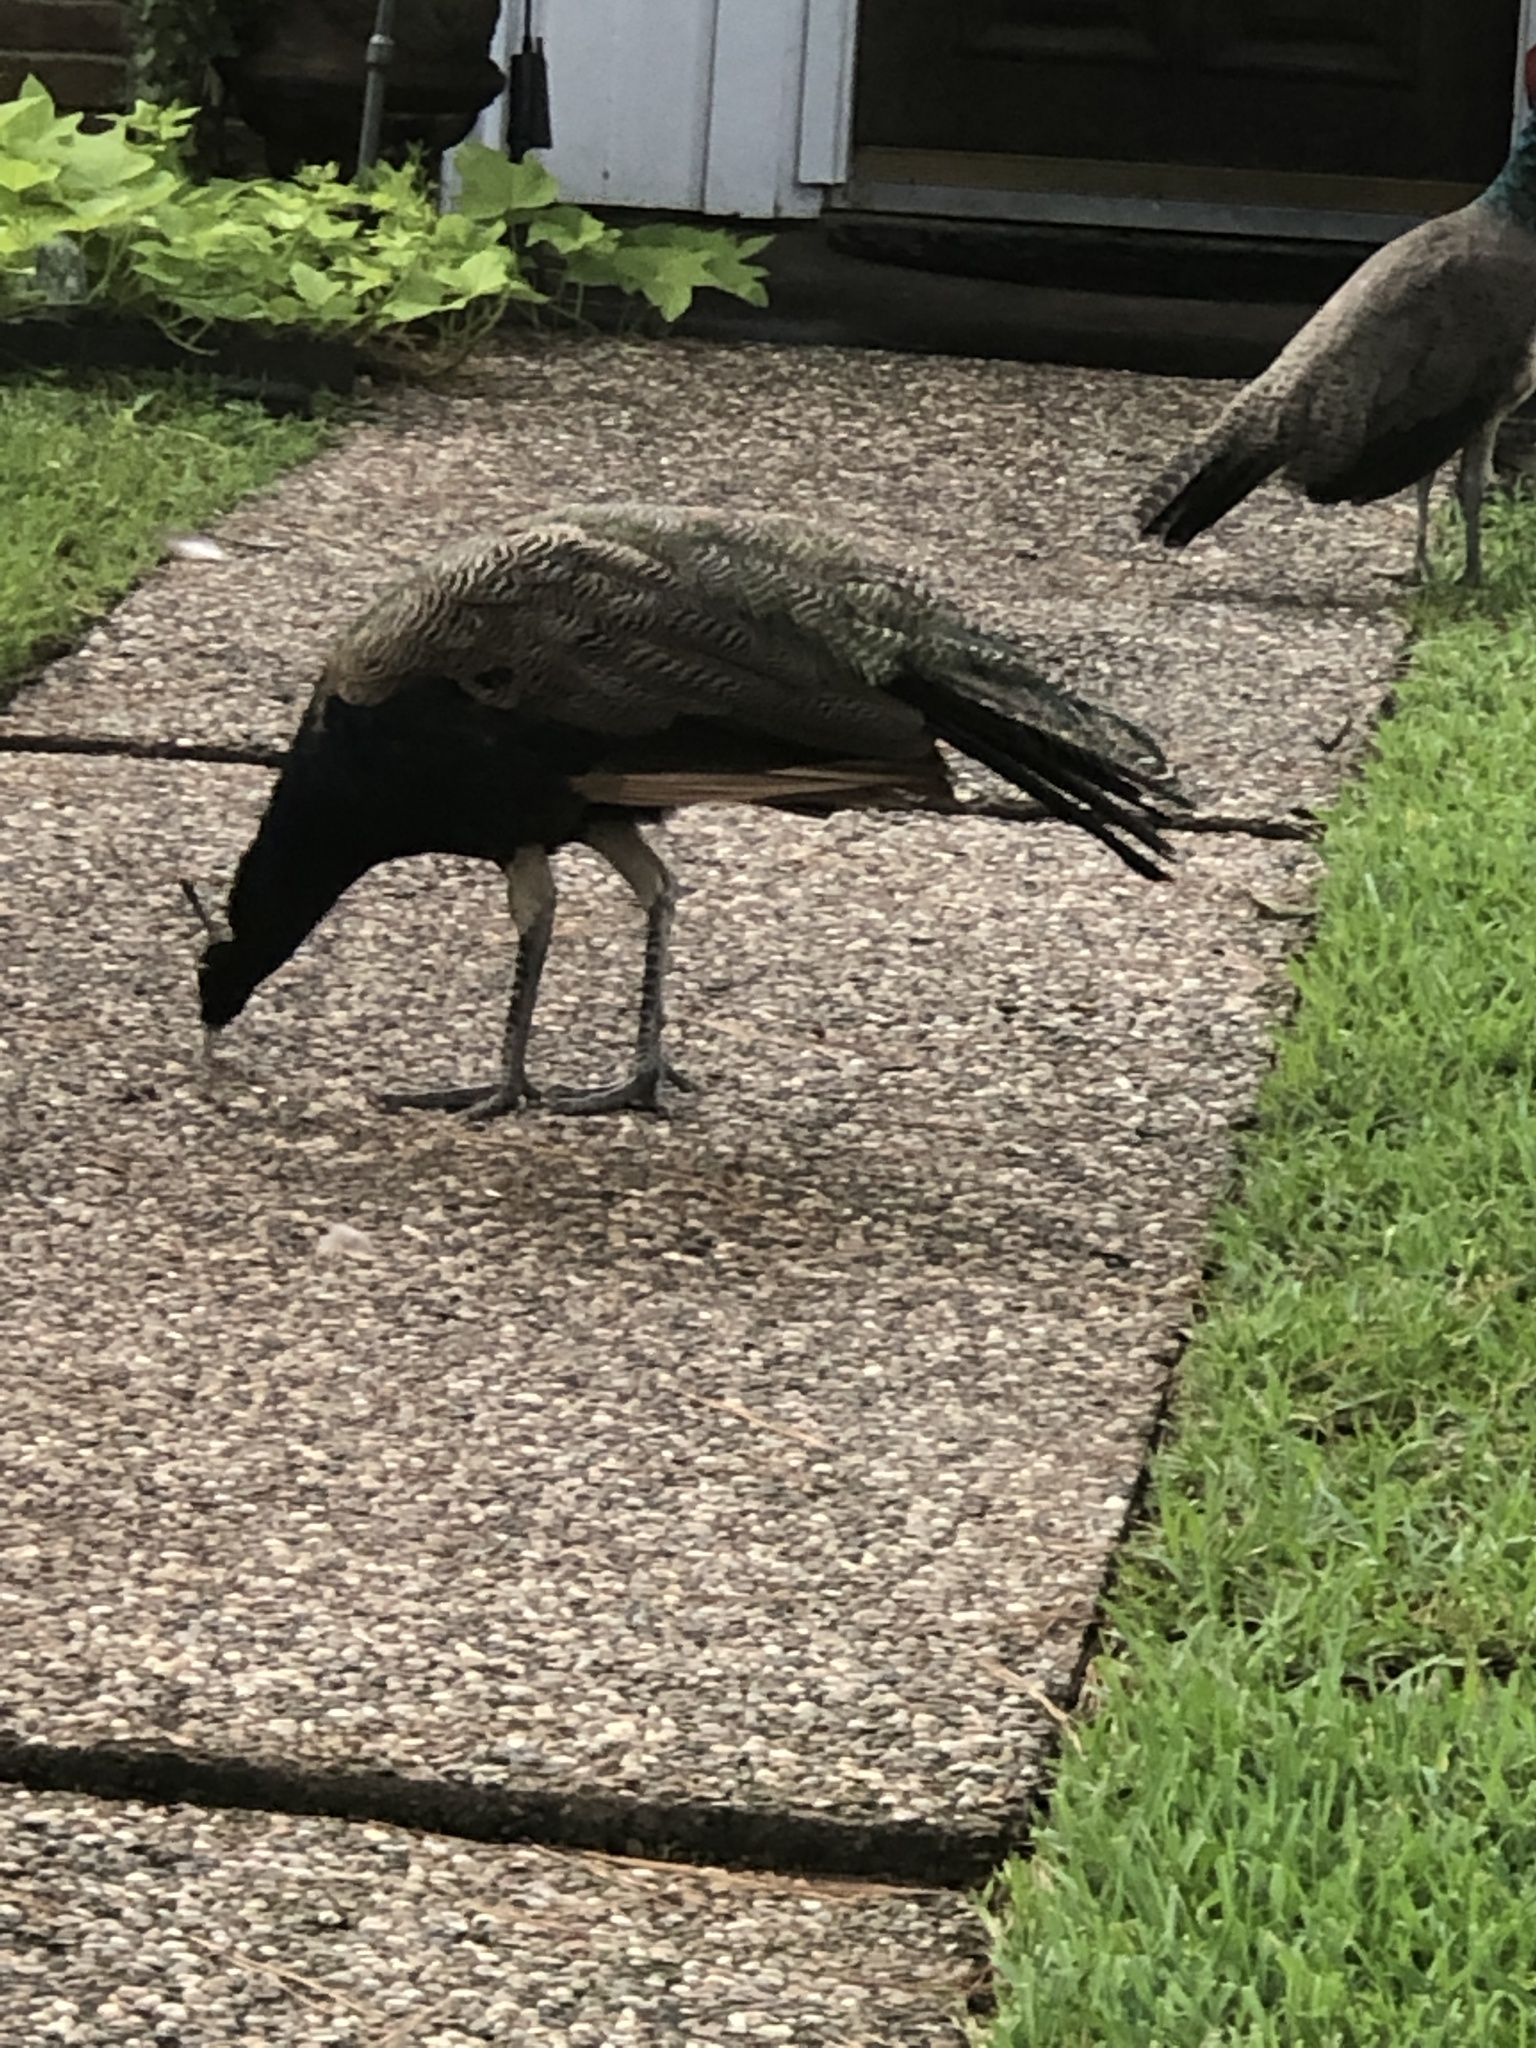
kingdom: Animalia
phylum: Chordata
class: Aves
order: Galliformes
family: Phasianidae
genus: Pavo
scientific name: Pavo cristatus
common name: Indian peafowl
